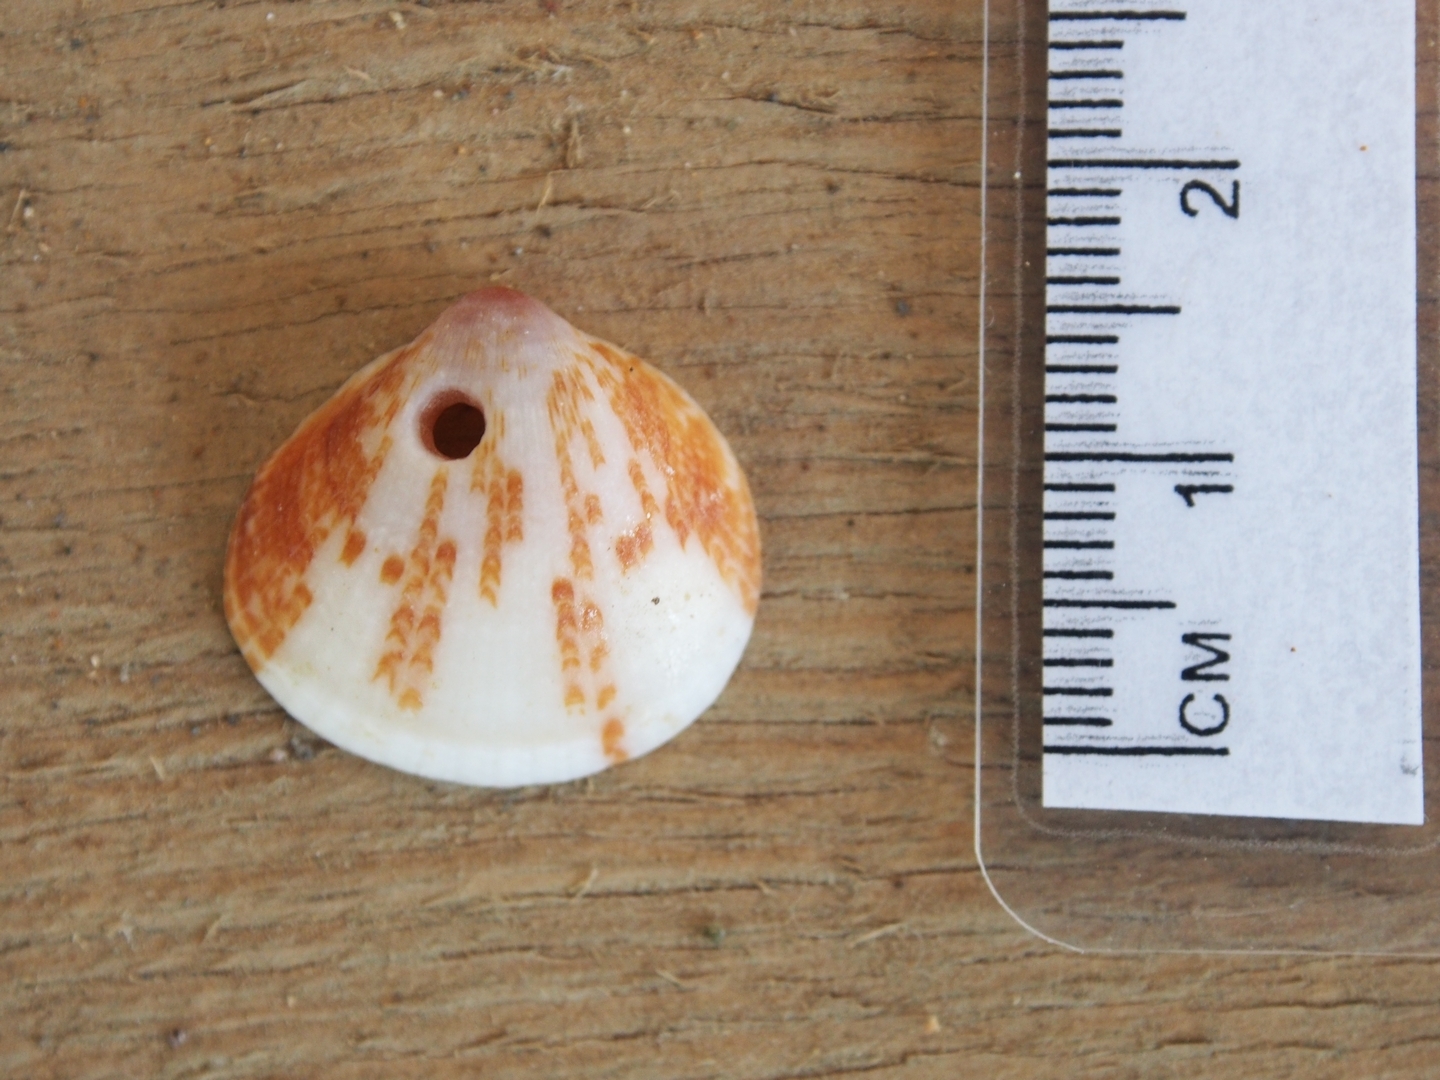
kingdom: Animalia
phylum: Mollusca
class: Bivalvia
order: Arcida
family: Glycymerididae
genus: Glycymeris
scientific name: Glycymeris spectralis
